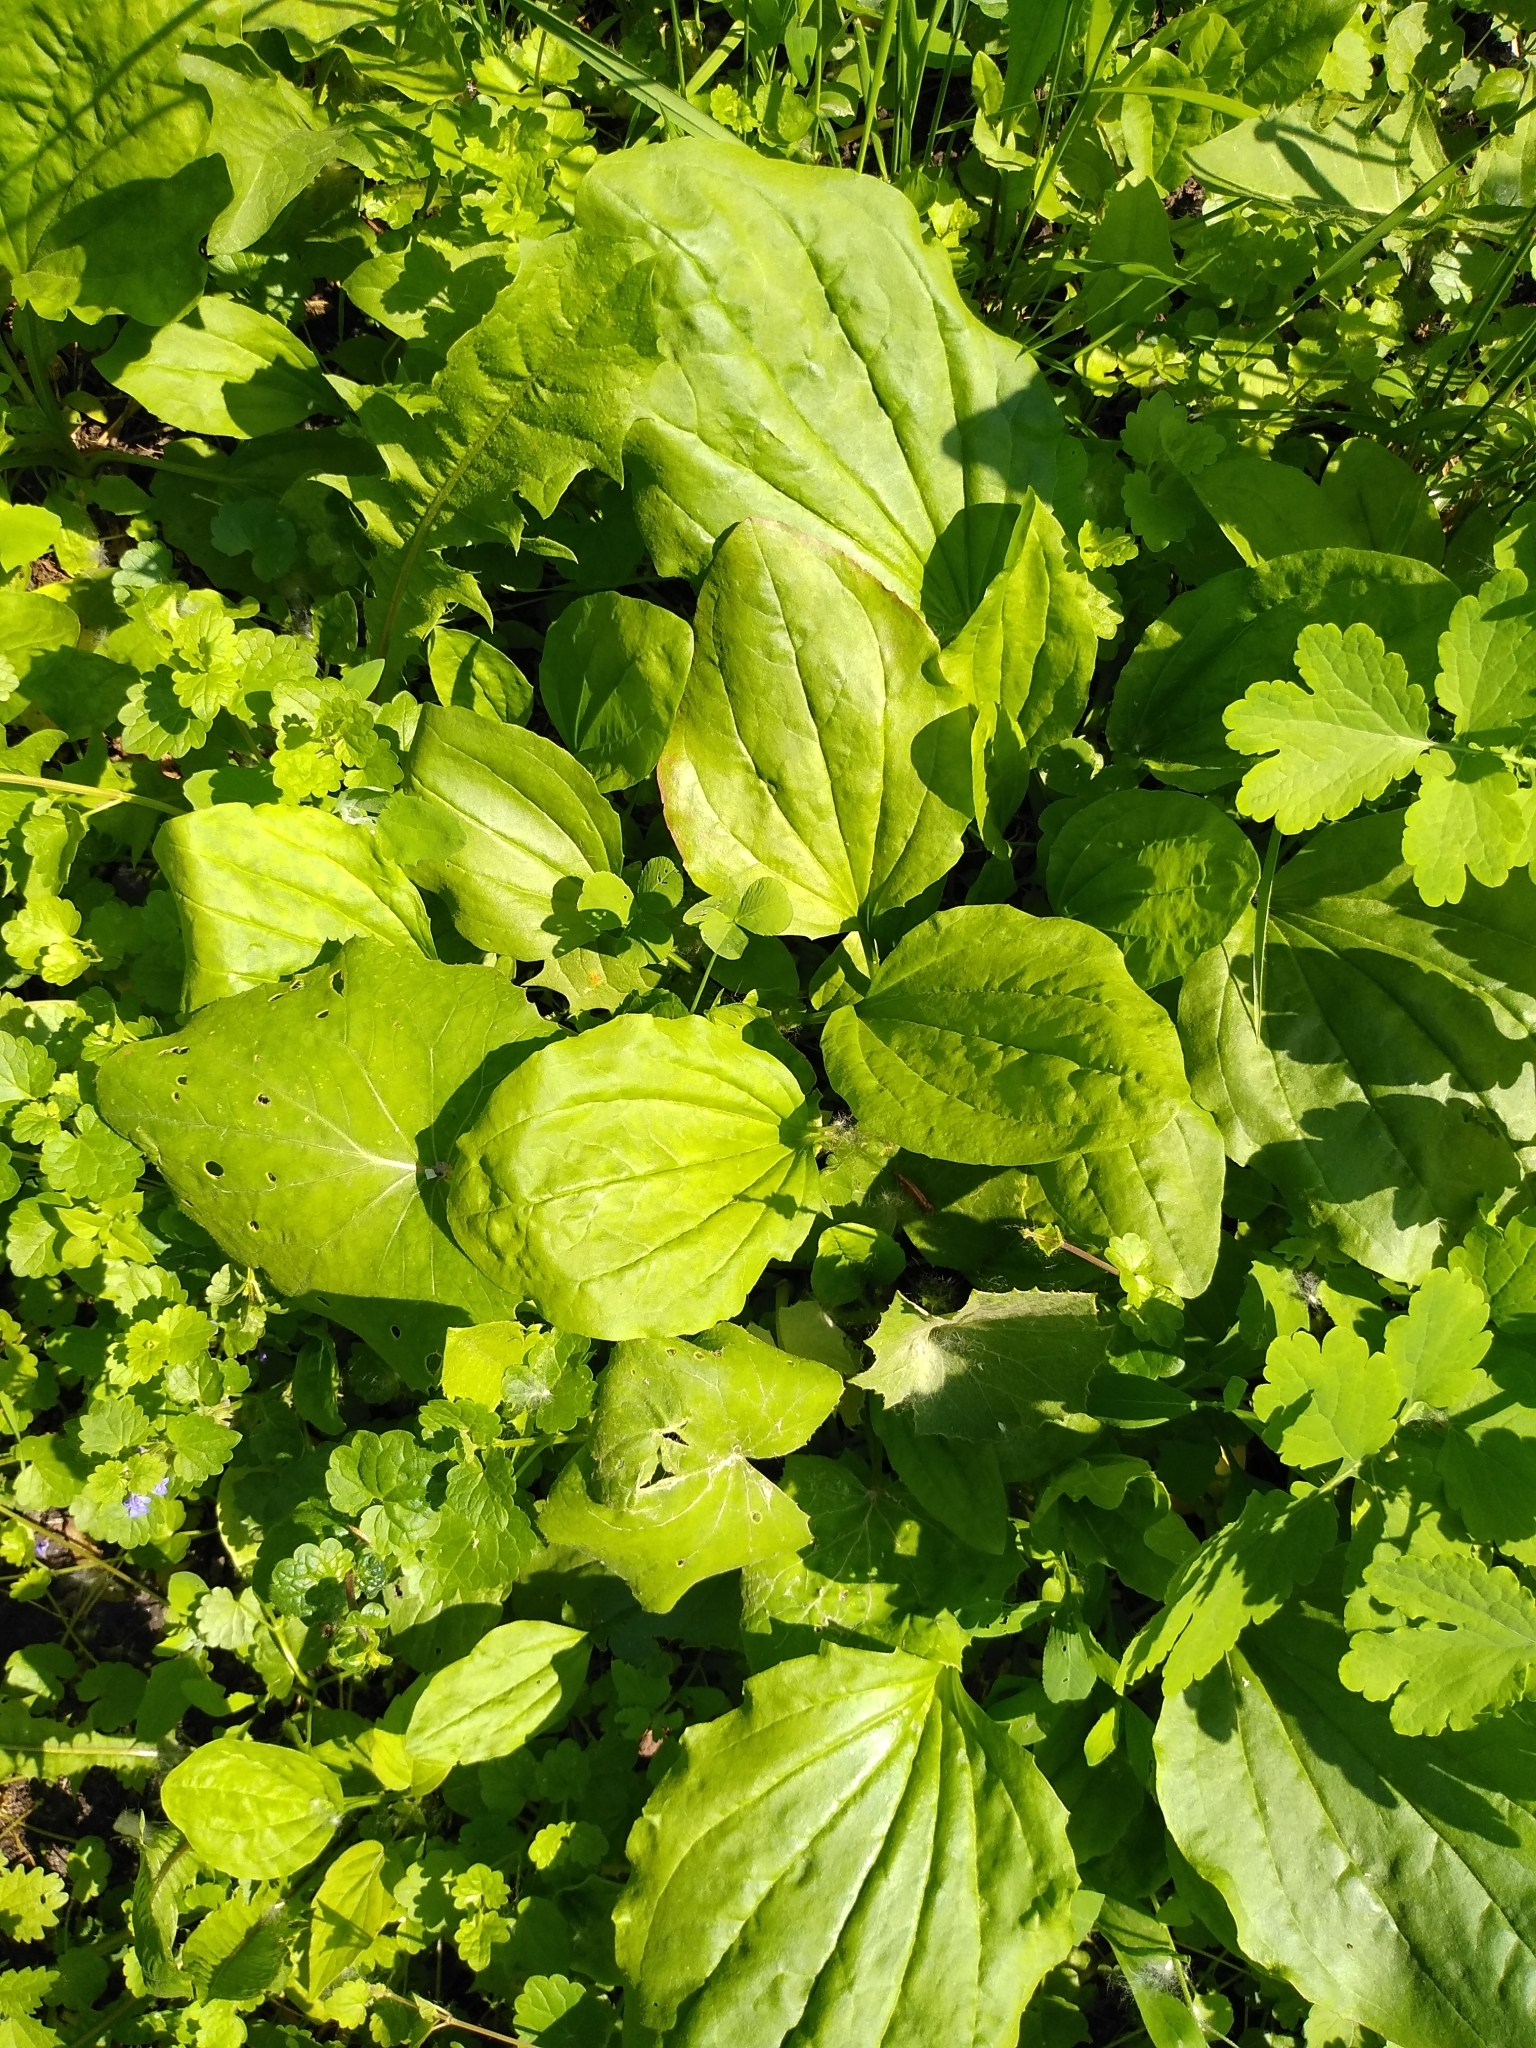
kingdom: Plantae
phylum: Tracheophyta
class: Magnoliopsida
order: Lamiales
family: Plantaginaceae
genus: Plantago
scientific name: Plantago major
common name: Common plantain
